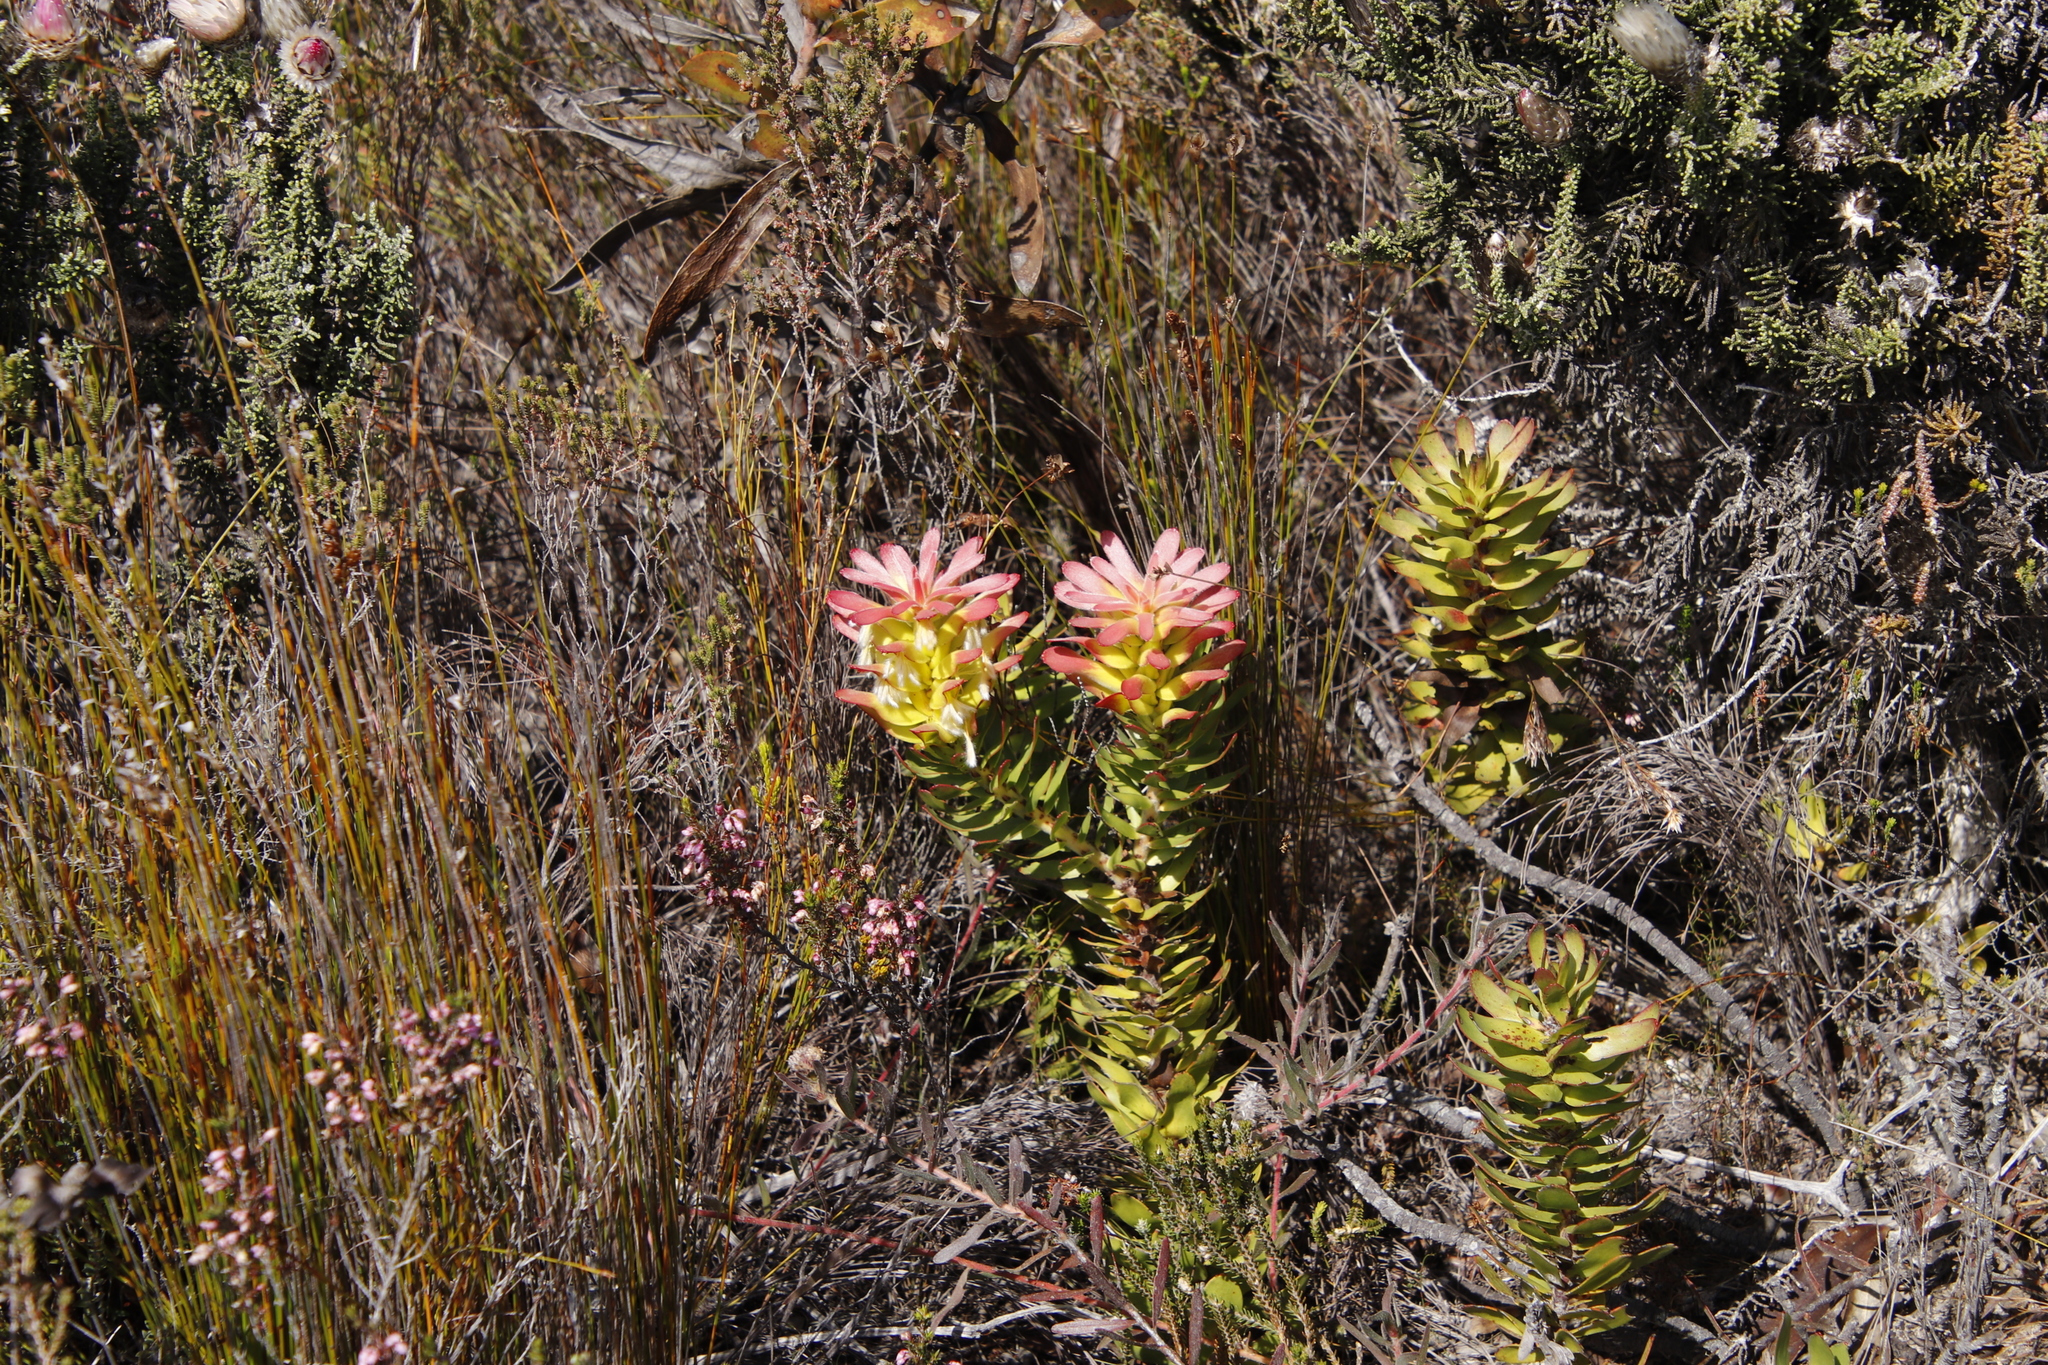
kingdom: Plantae
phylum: Tracheophyta
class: Magnoliopsida
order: Proteales
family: Proteaceae
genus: Mimetes
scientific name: Mimetes cucullatus
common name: Common pagoda
